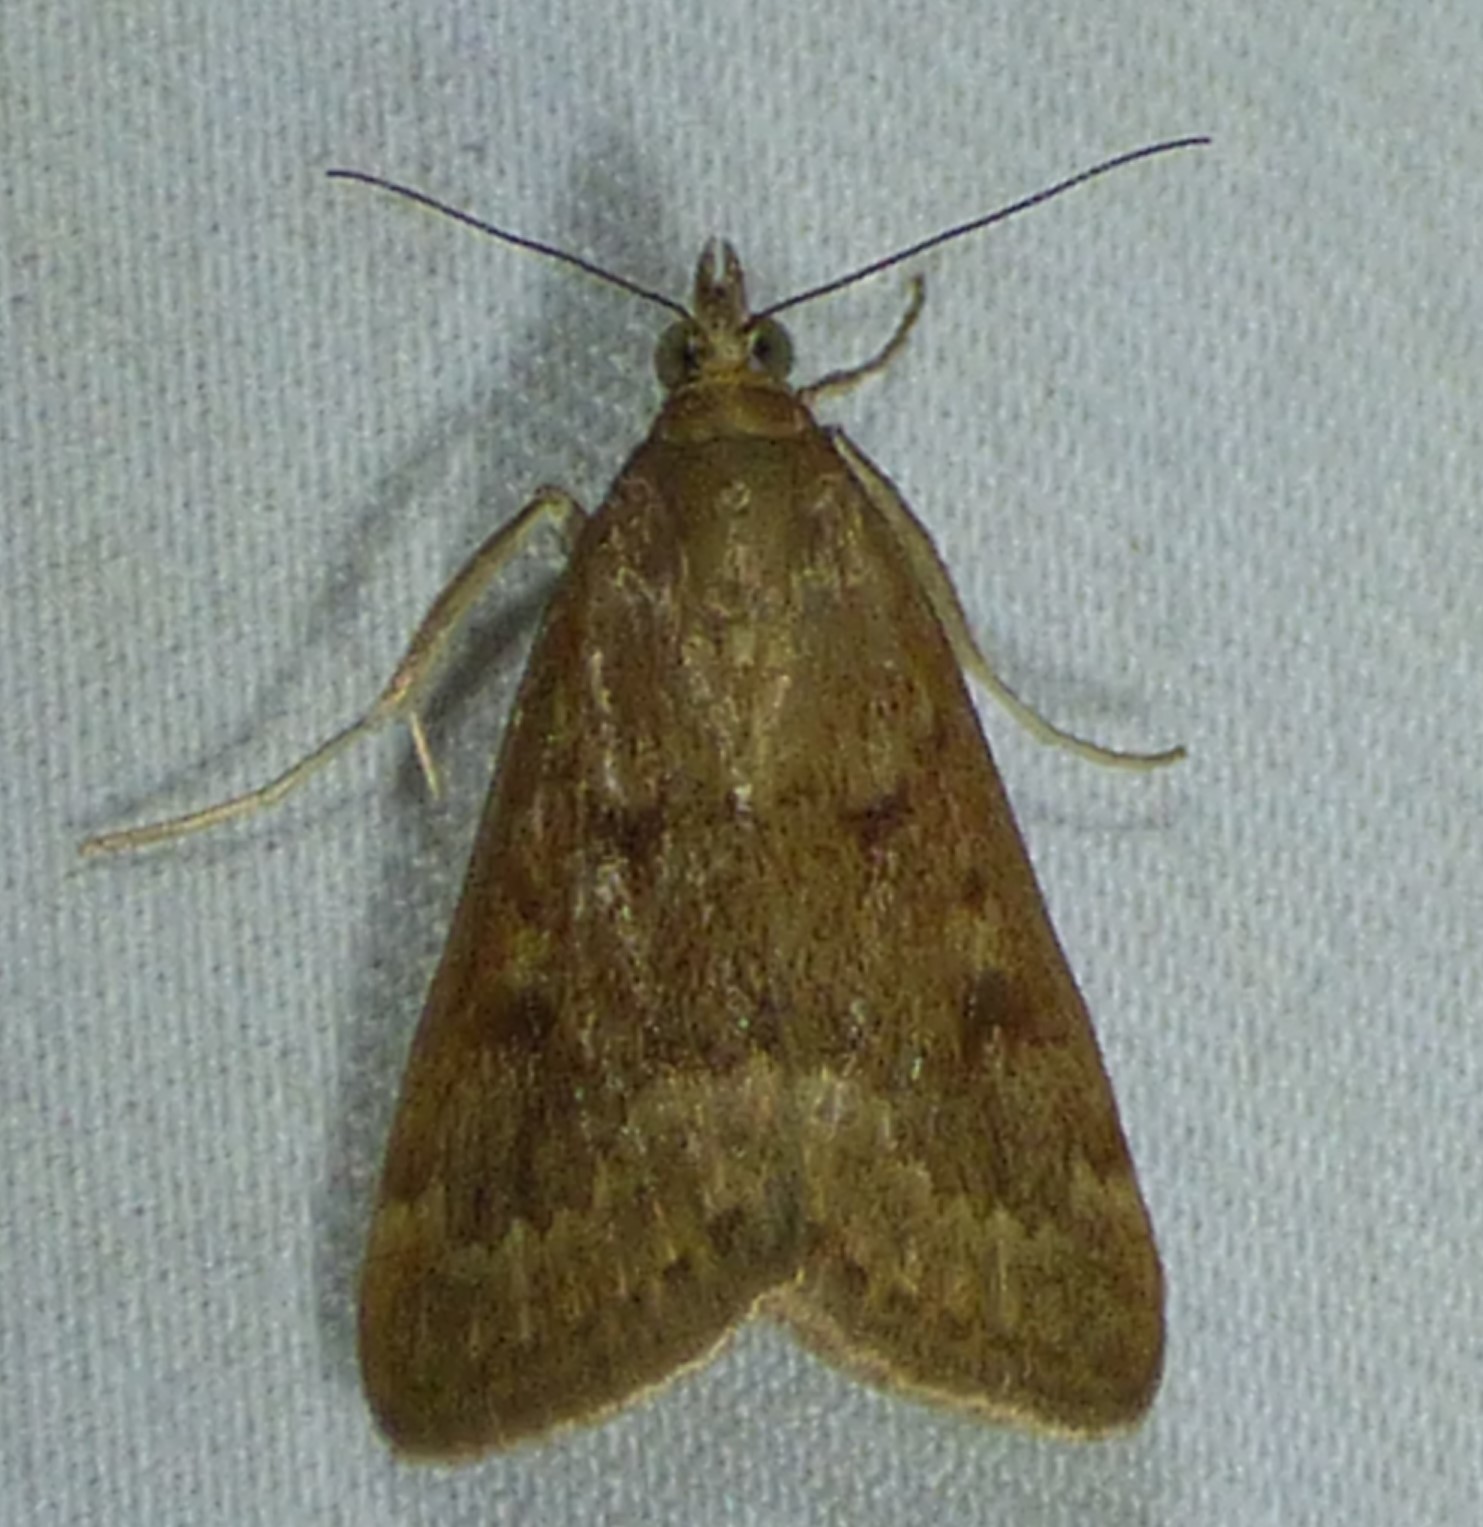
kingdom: Animalia
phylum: Arthropoda
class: Insecta
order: Lepidoptera
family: Crambidae
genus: Achyra
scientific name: Achyra rantalis
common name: Garden webworm
